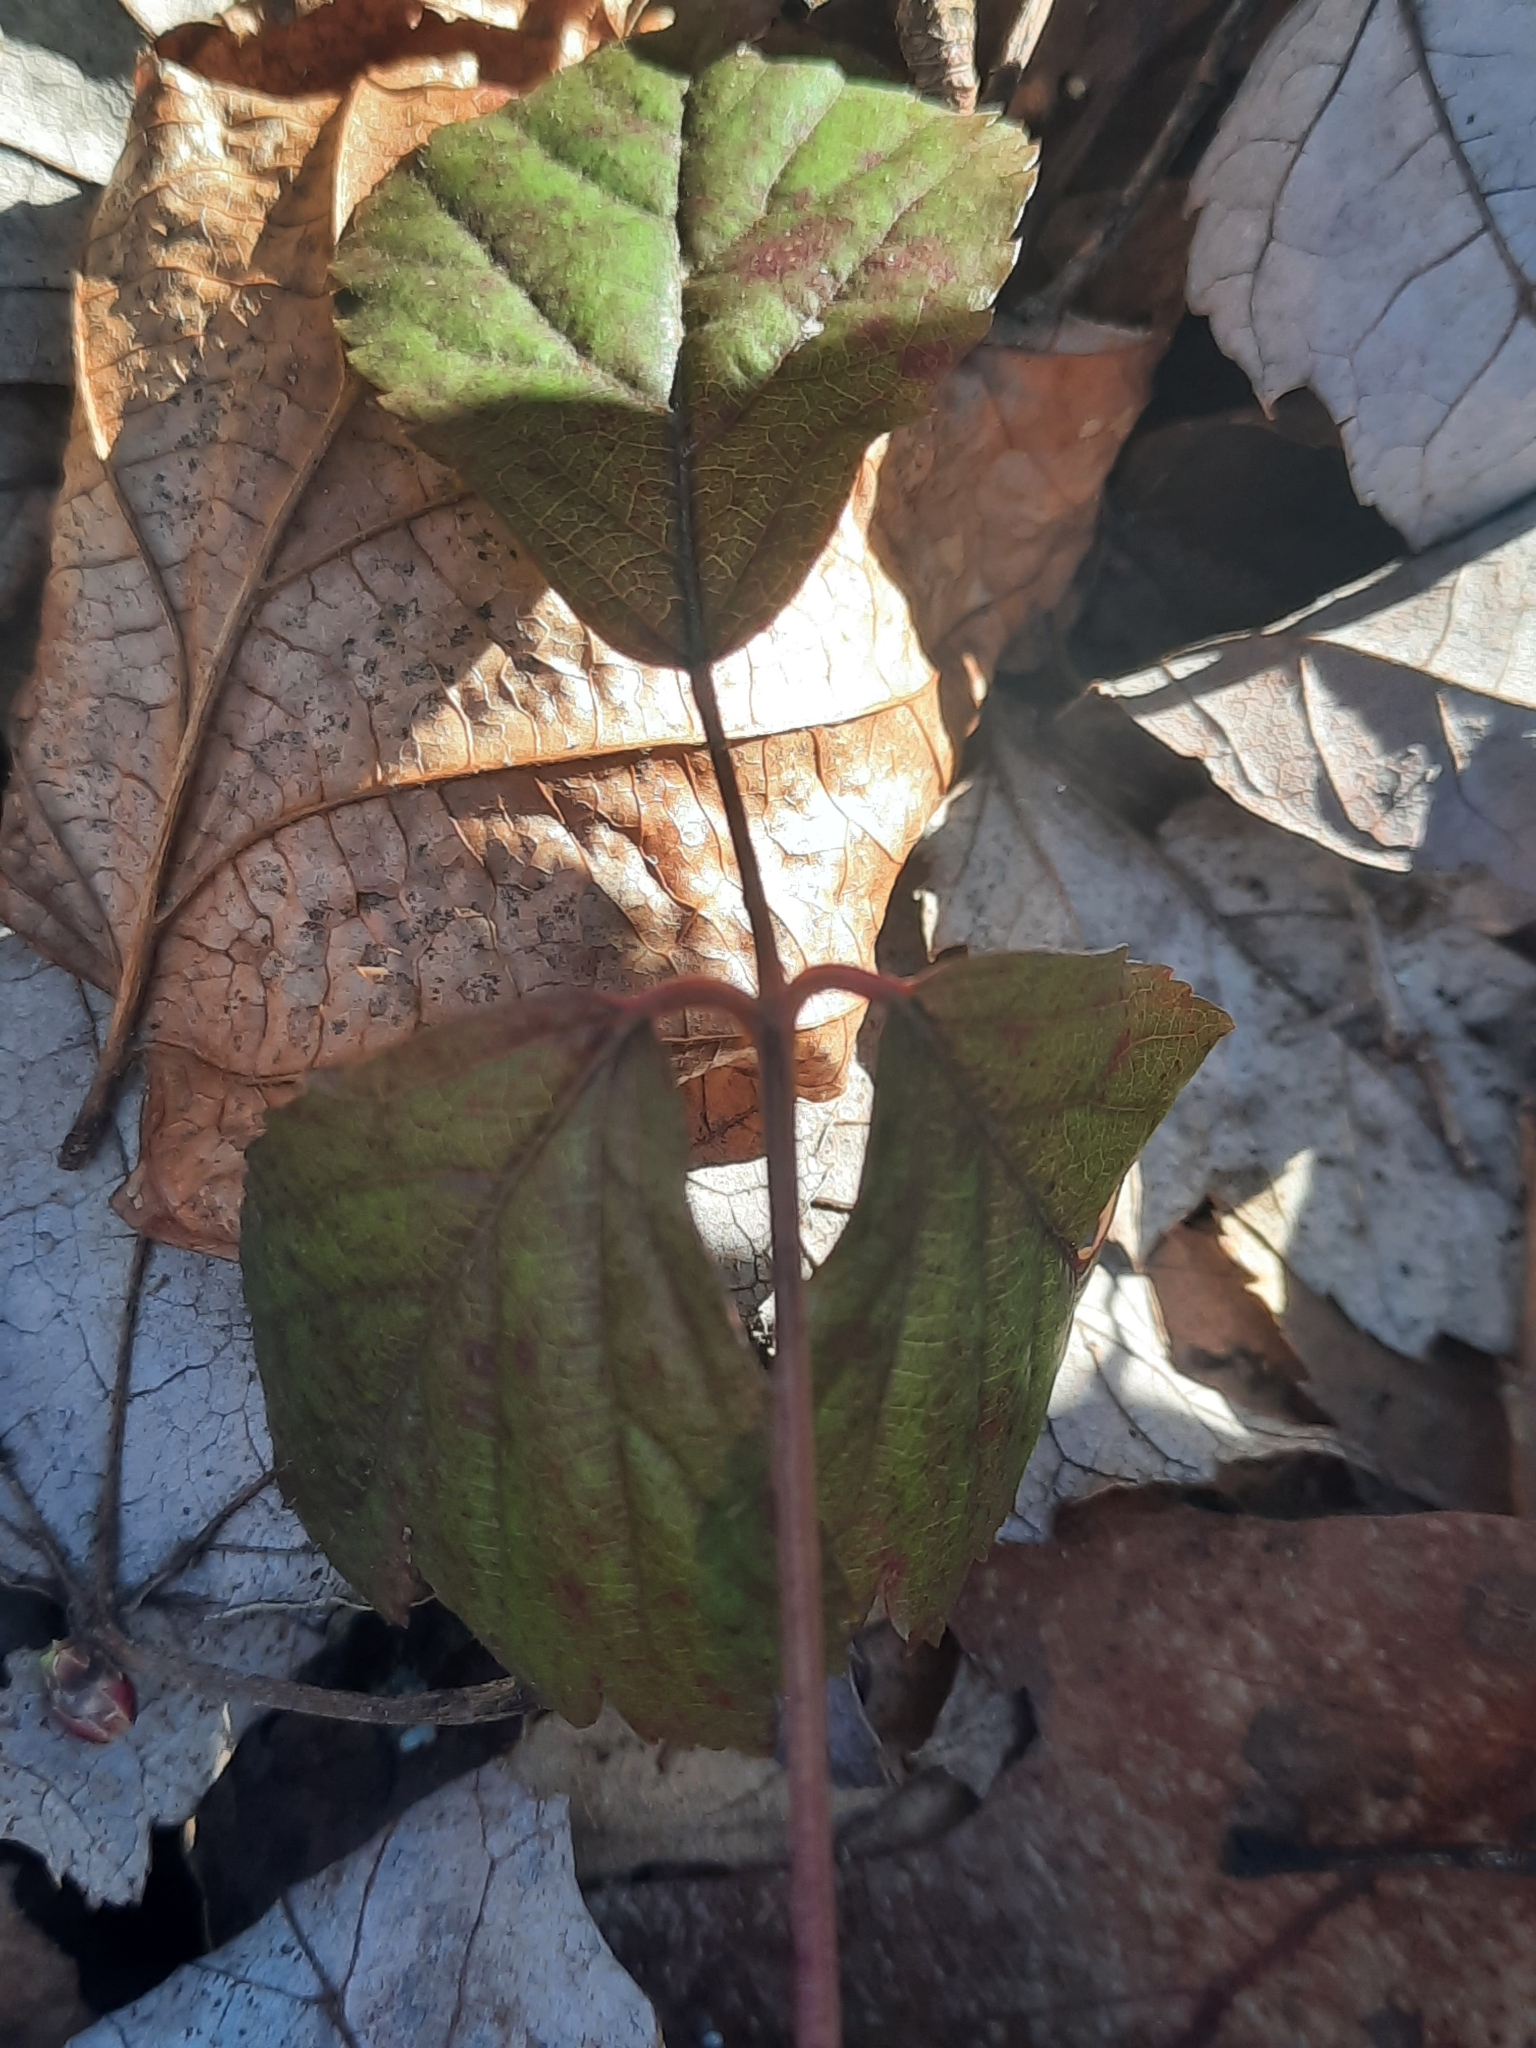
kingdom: Plantae
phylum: Tracheophyta
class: Magnoliopsida
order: Rosales
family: Rosaceae
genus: Rubus
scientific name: Rubus hispidus
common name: Running blackberry
